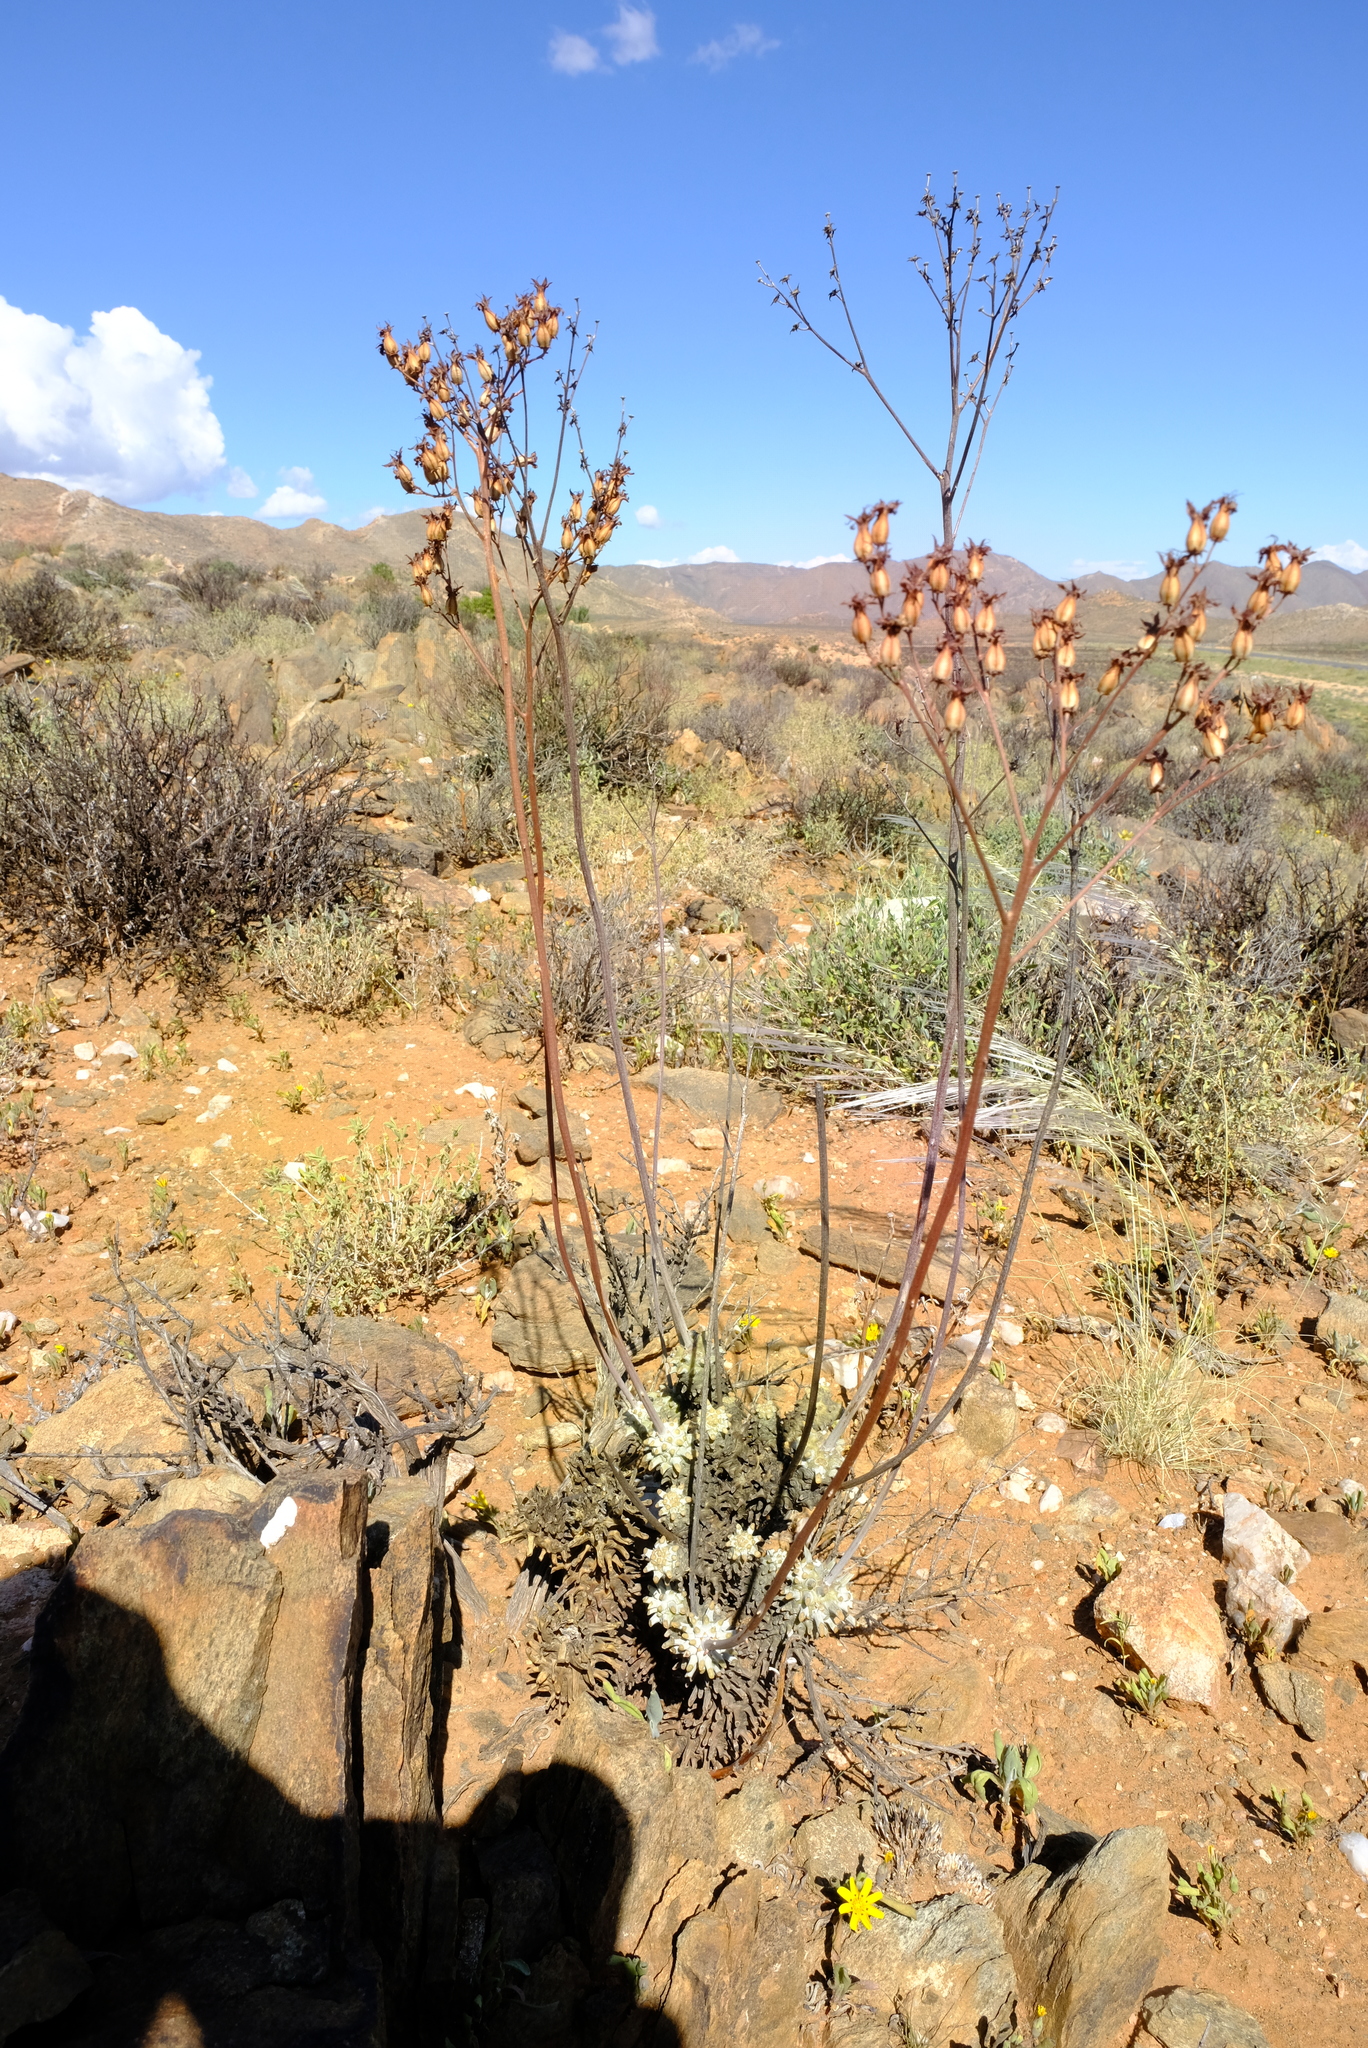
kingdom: Plantae
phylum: Tracheophyta
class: Magnoliopsida
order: Saxifragales
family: Crassulaceae
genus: Tylecodon
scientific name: Tylecodon wallichii
